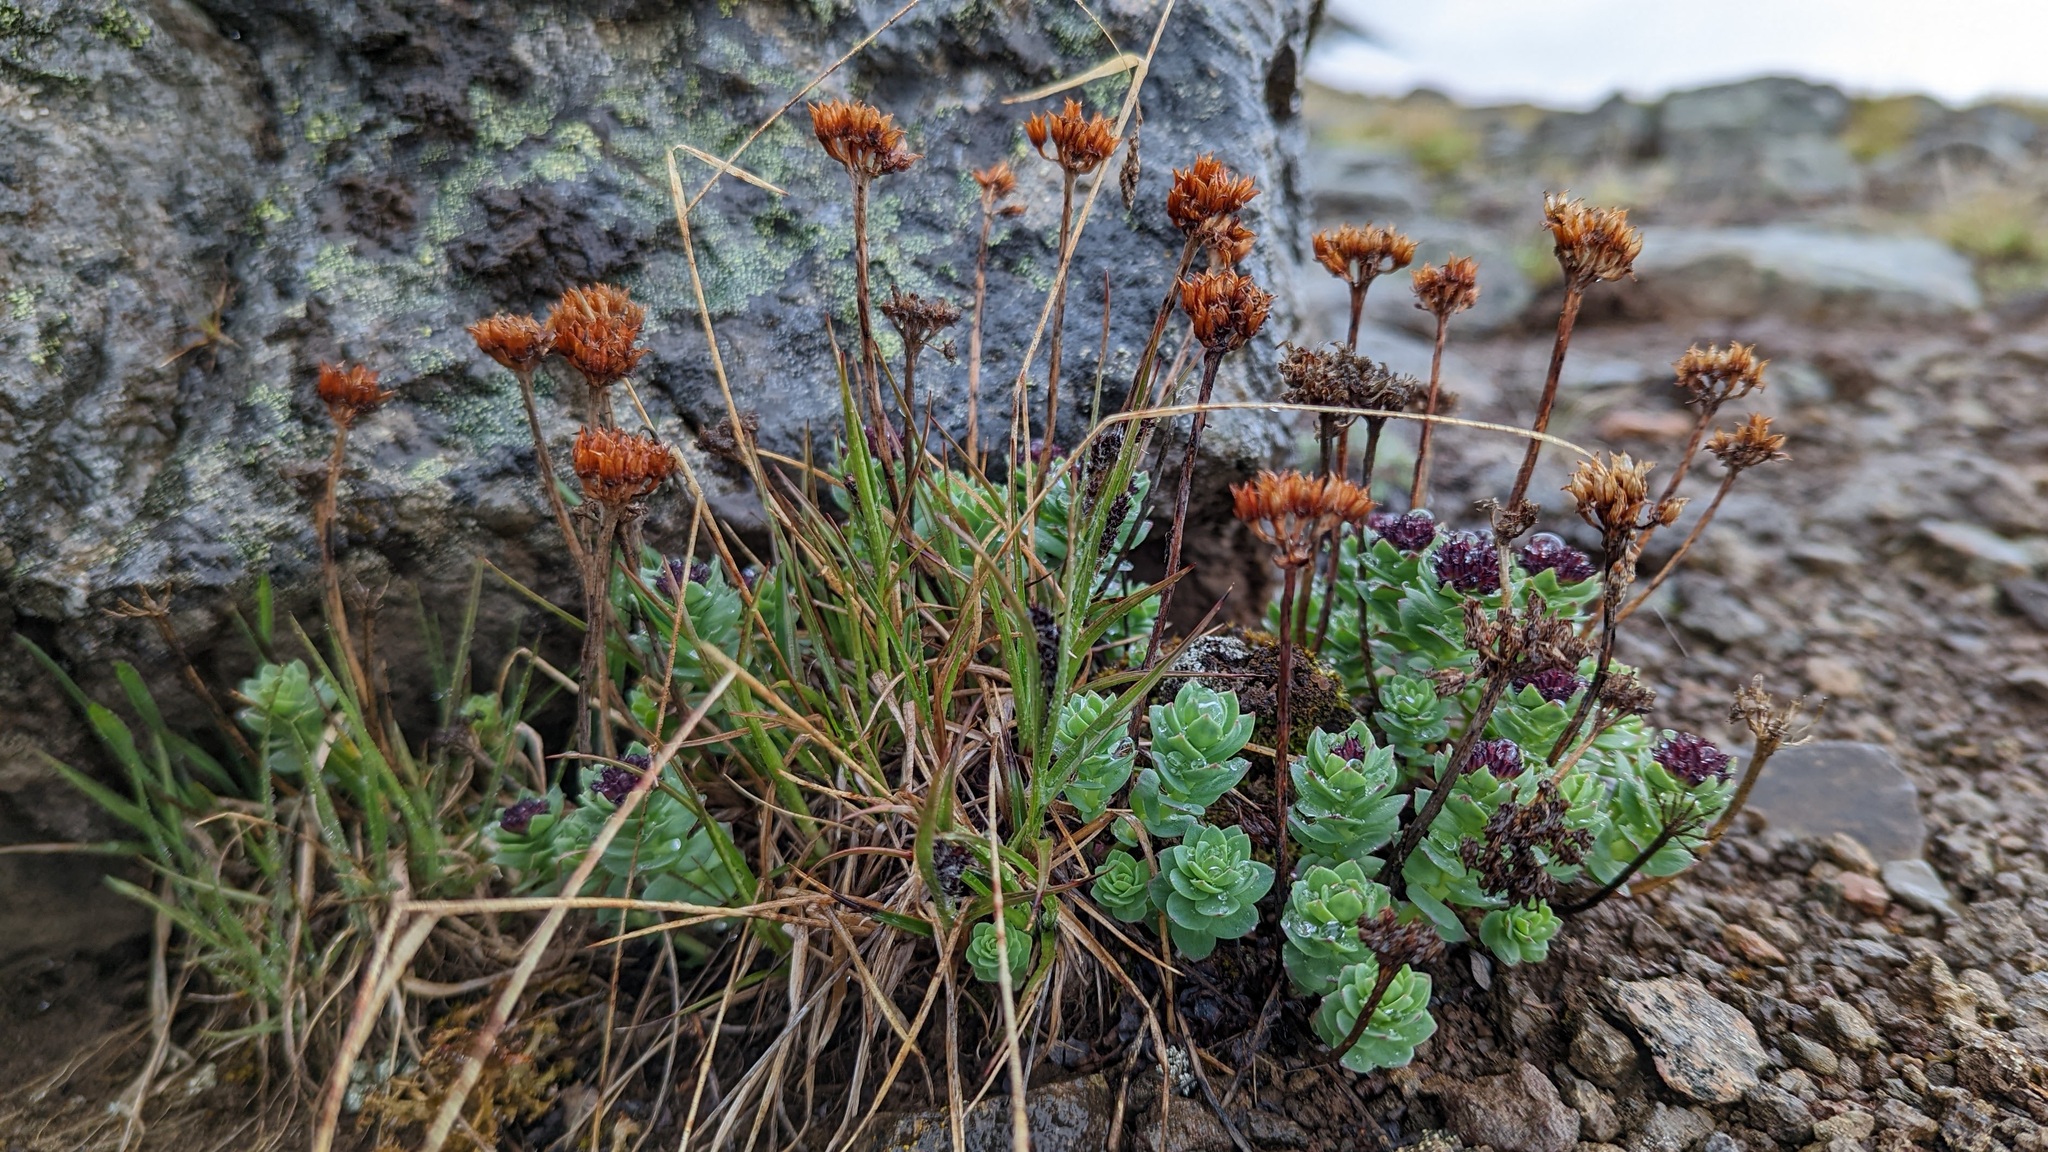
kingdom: Plantae
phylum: Tracheophyta
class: Magnoliopsida
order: Saxifragales
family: Crassulaceae
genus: Rhodiola
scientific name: Rhodiola integrifolia
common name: Western roseroot
